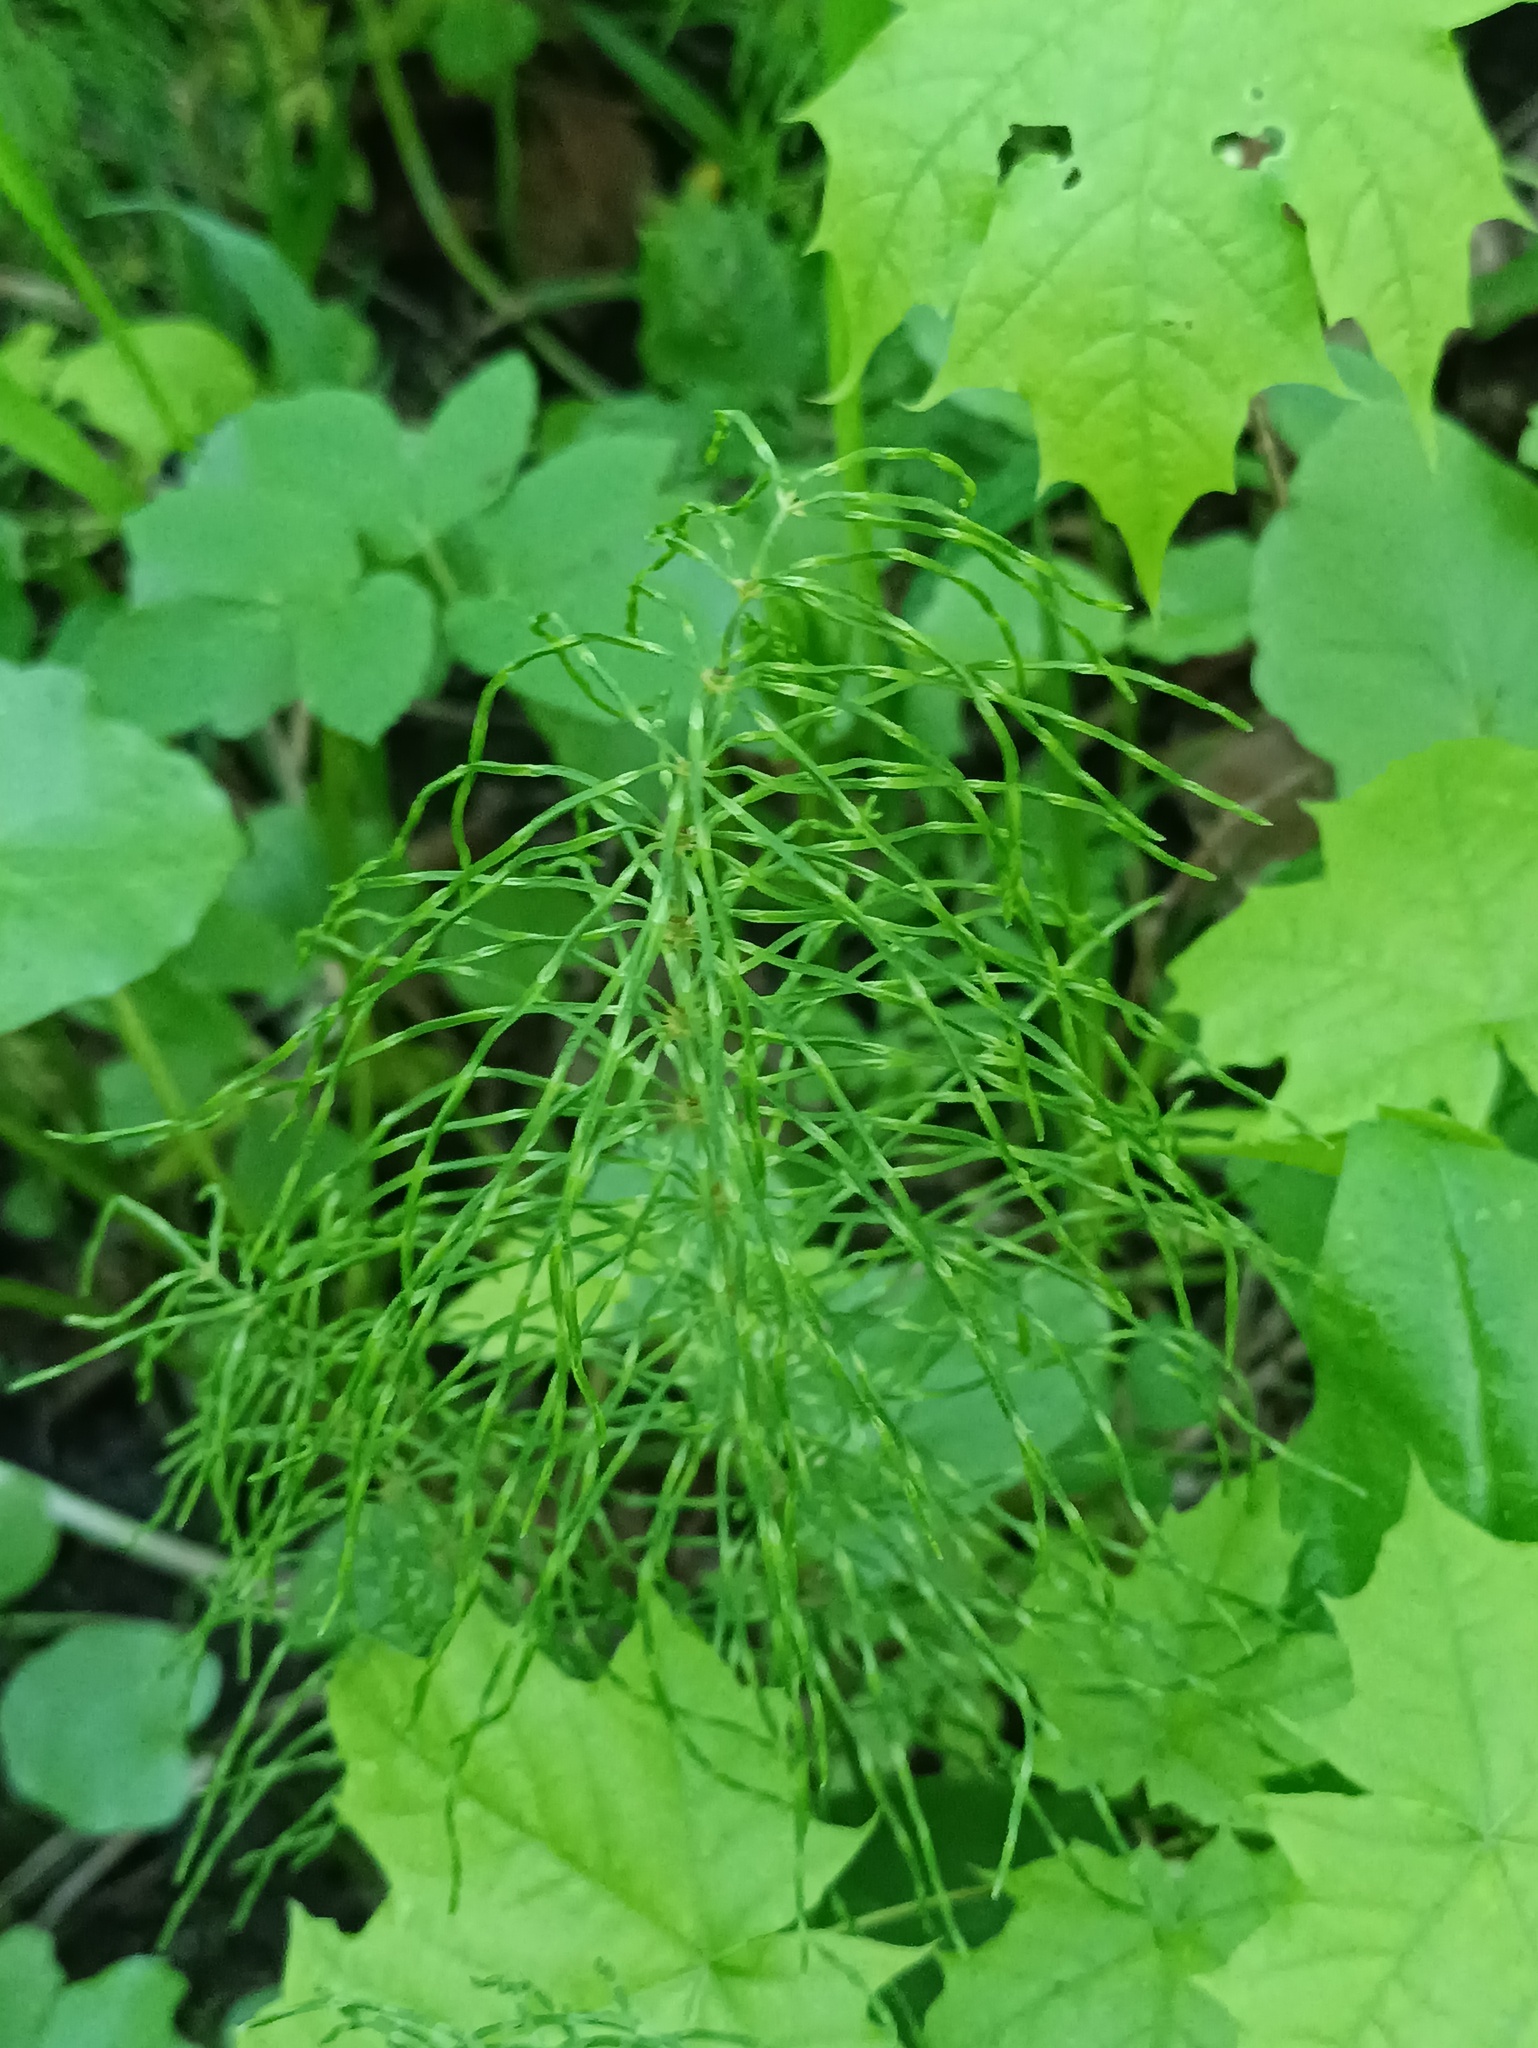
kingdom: Plantae
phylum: Tracheophyta
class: Polypodiopsida
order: Equisetales
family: Equisetaceae
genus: Equisetum
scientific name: Equisetum pratense
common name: Meadow horsetail
